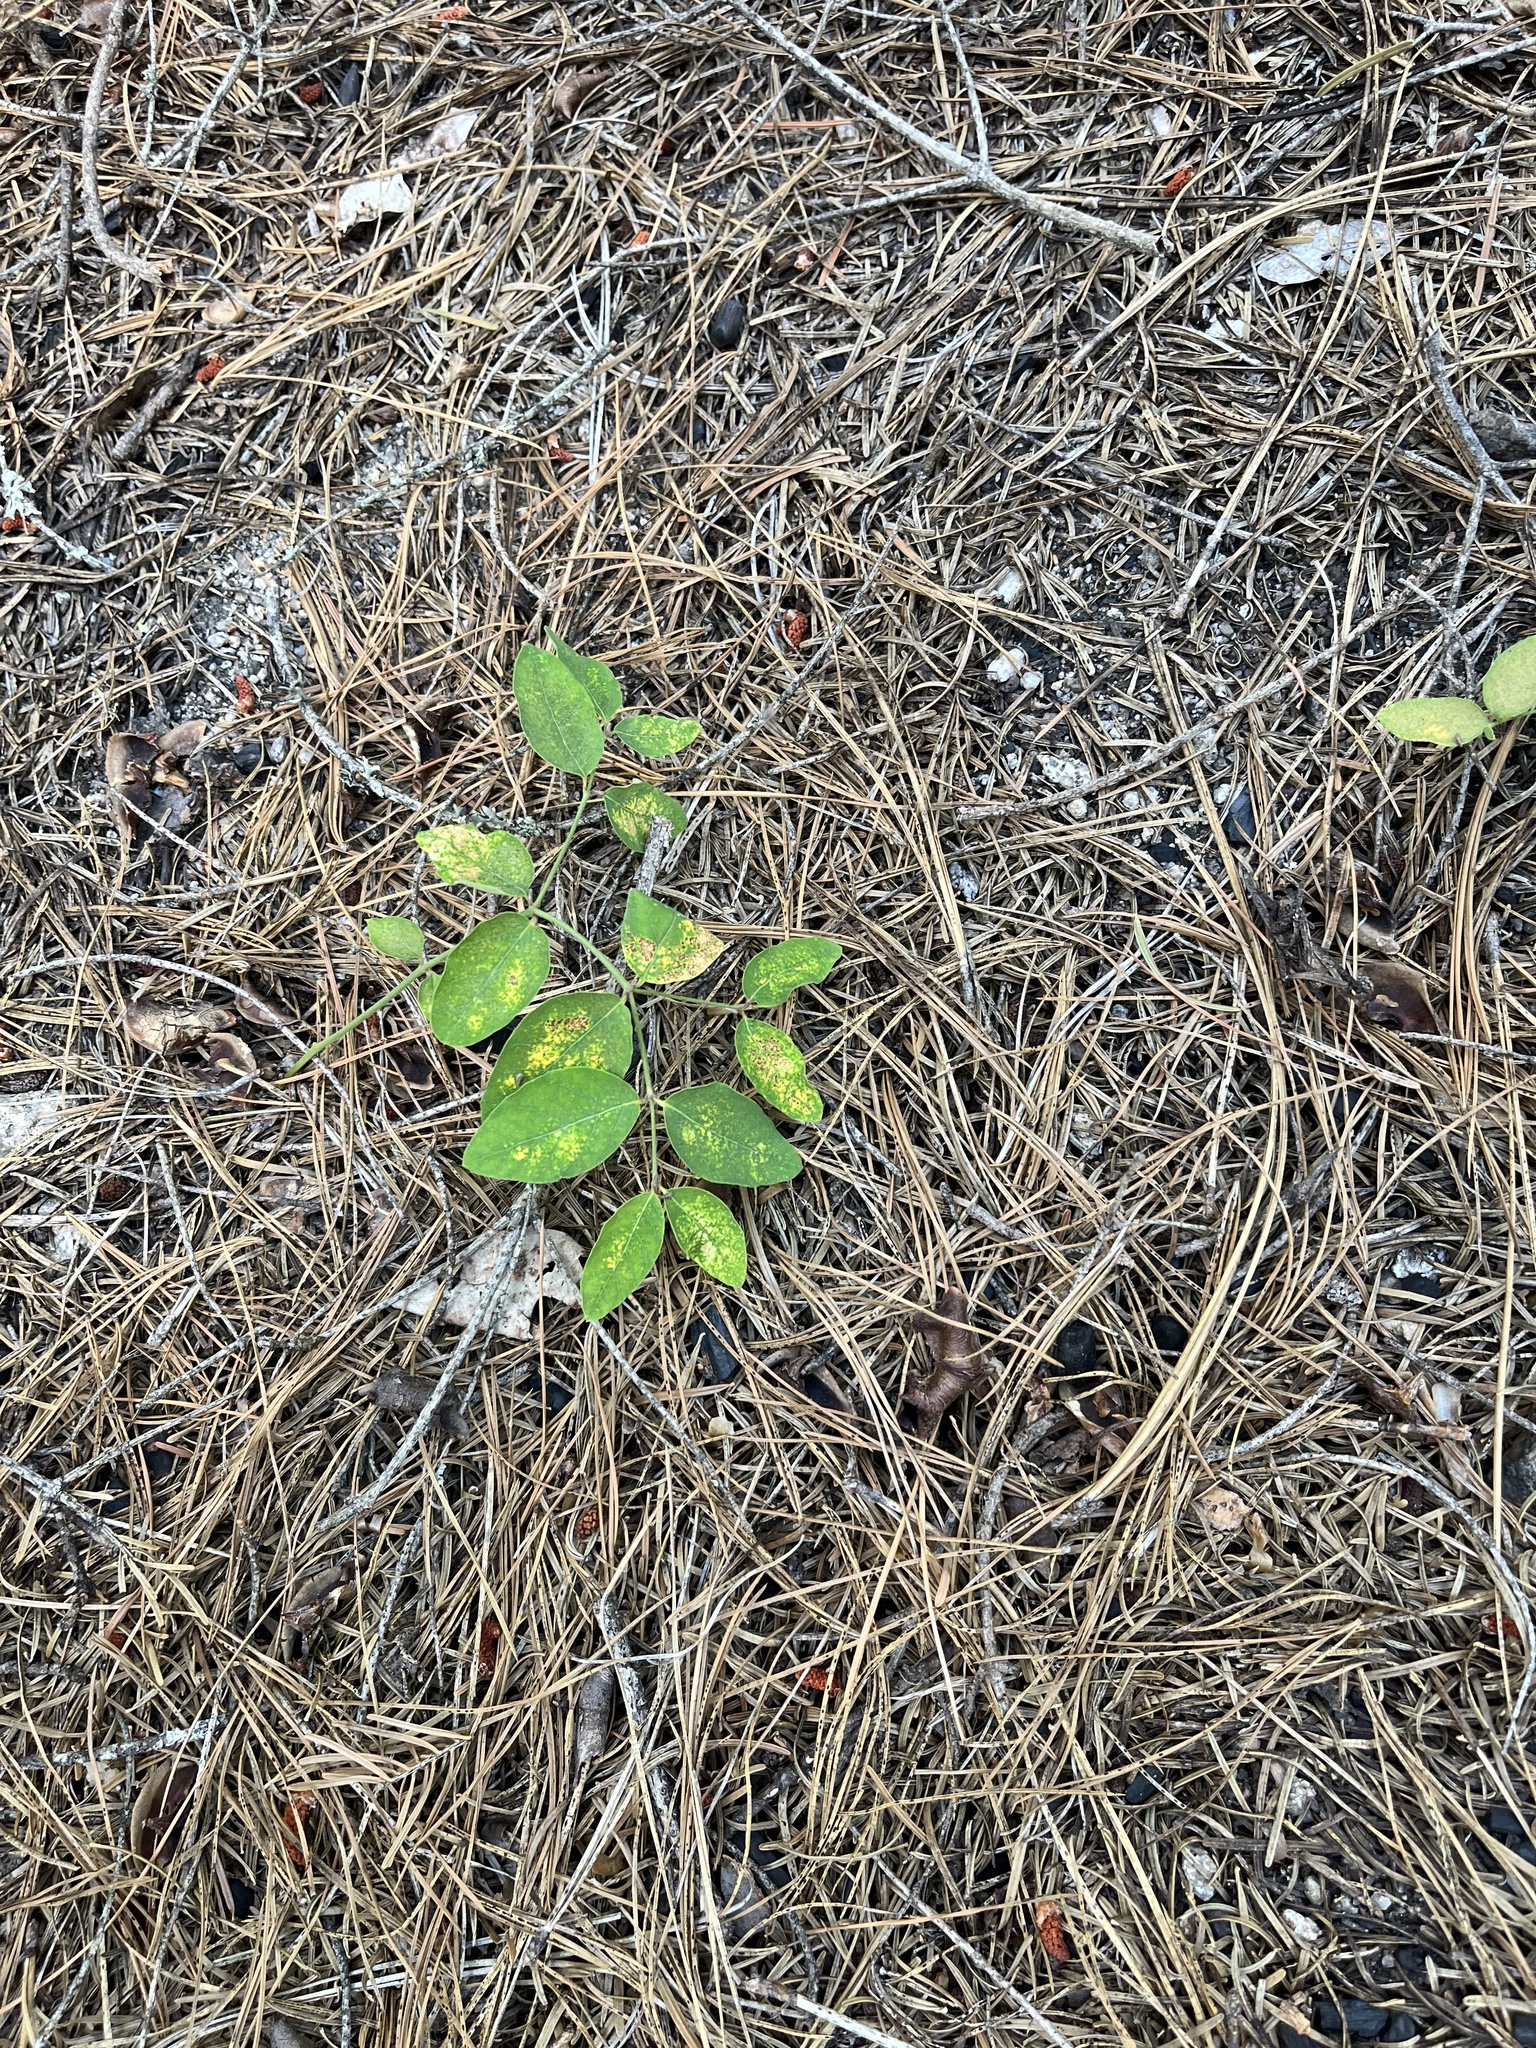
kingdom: Plantae
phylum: Tracheophyta
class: Magnoliopsida
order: Gentianales
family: Apocynaceae
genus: Apocynum
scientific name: Apocynum androsaemifolium
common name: Spreading dogbane
